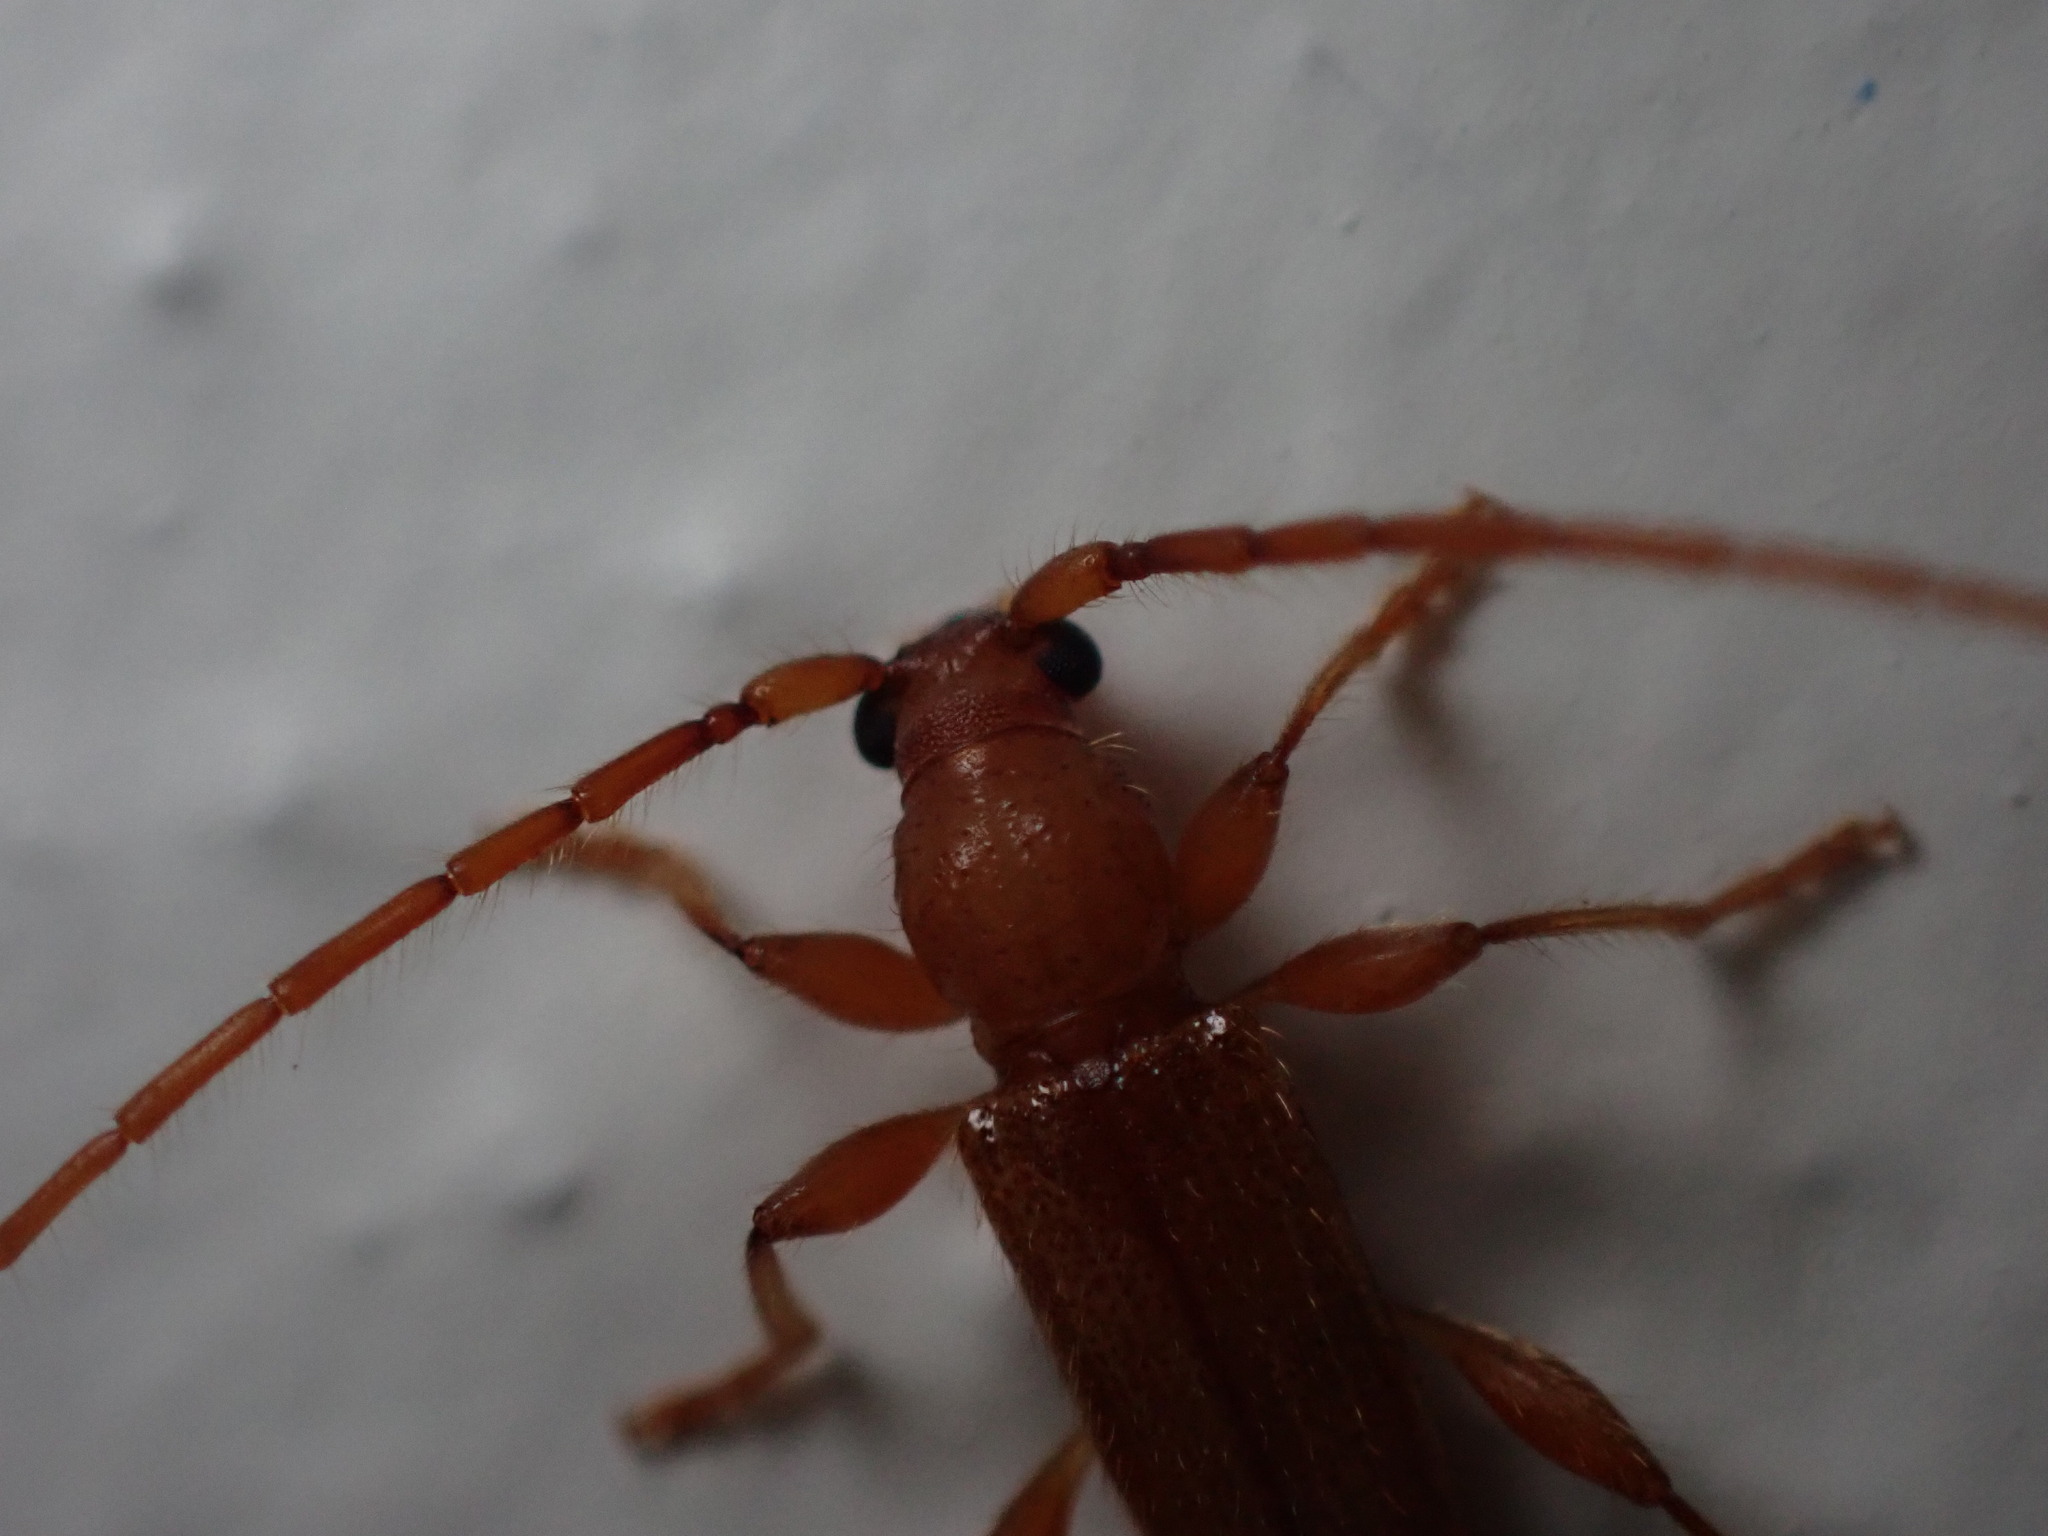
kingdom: Animalia
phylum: Arthropoda
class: Insecta
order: Coleoptera
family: Cerambycidae
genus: Curtomerus
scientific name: Curtomerus flavus
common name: Curtomerus long-horned beetle
